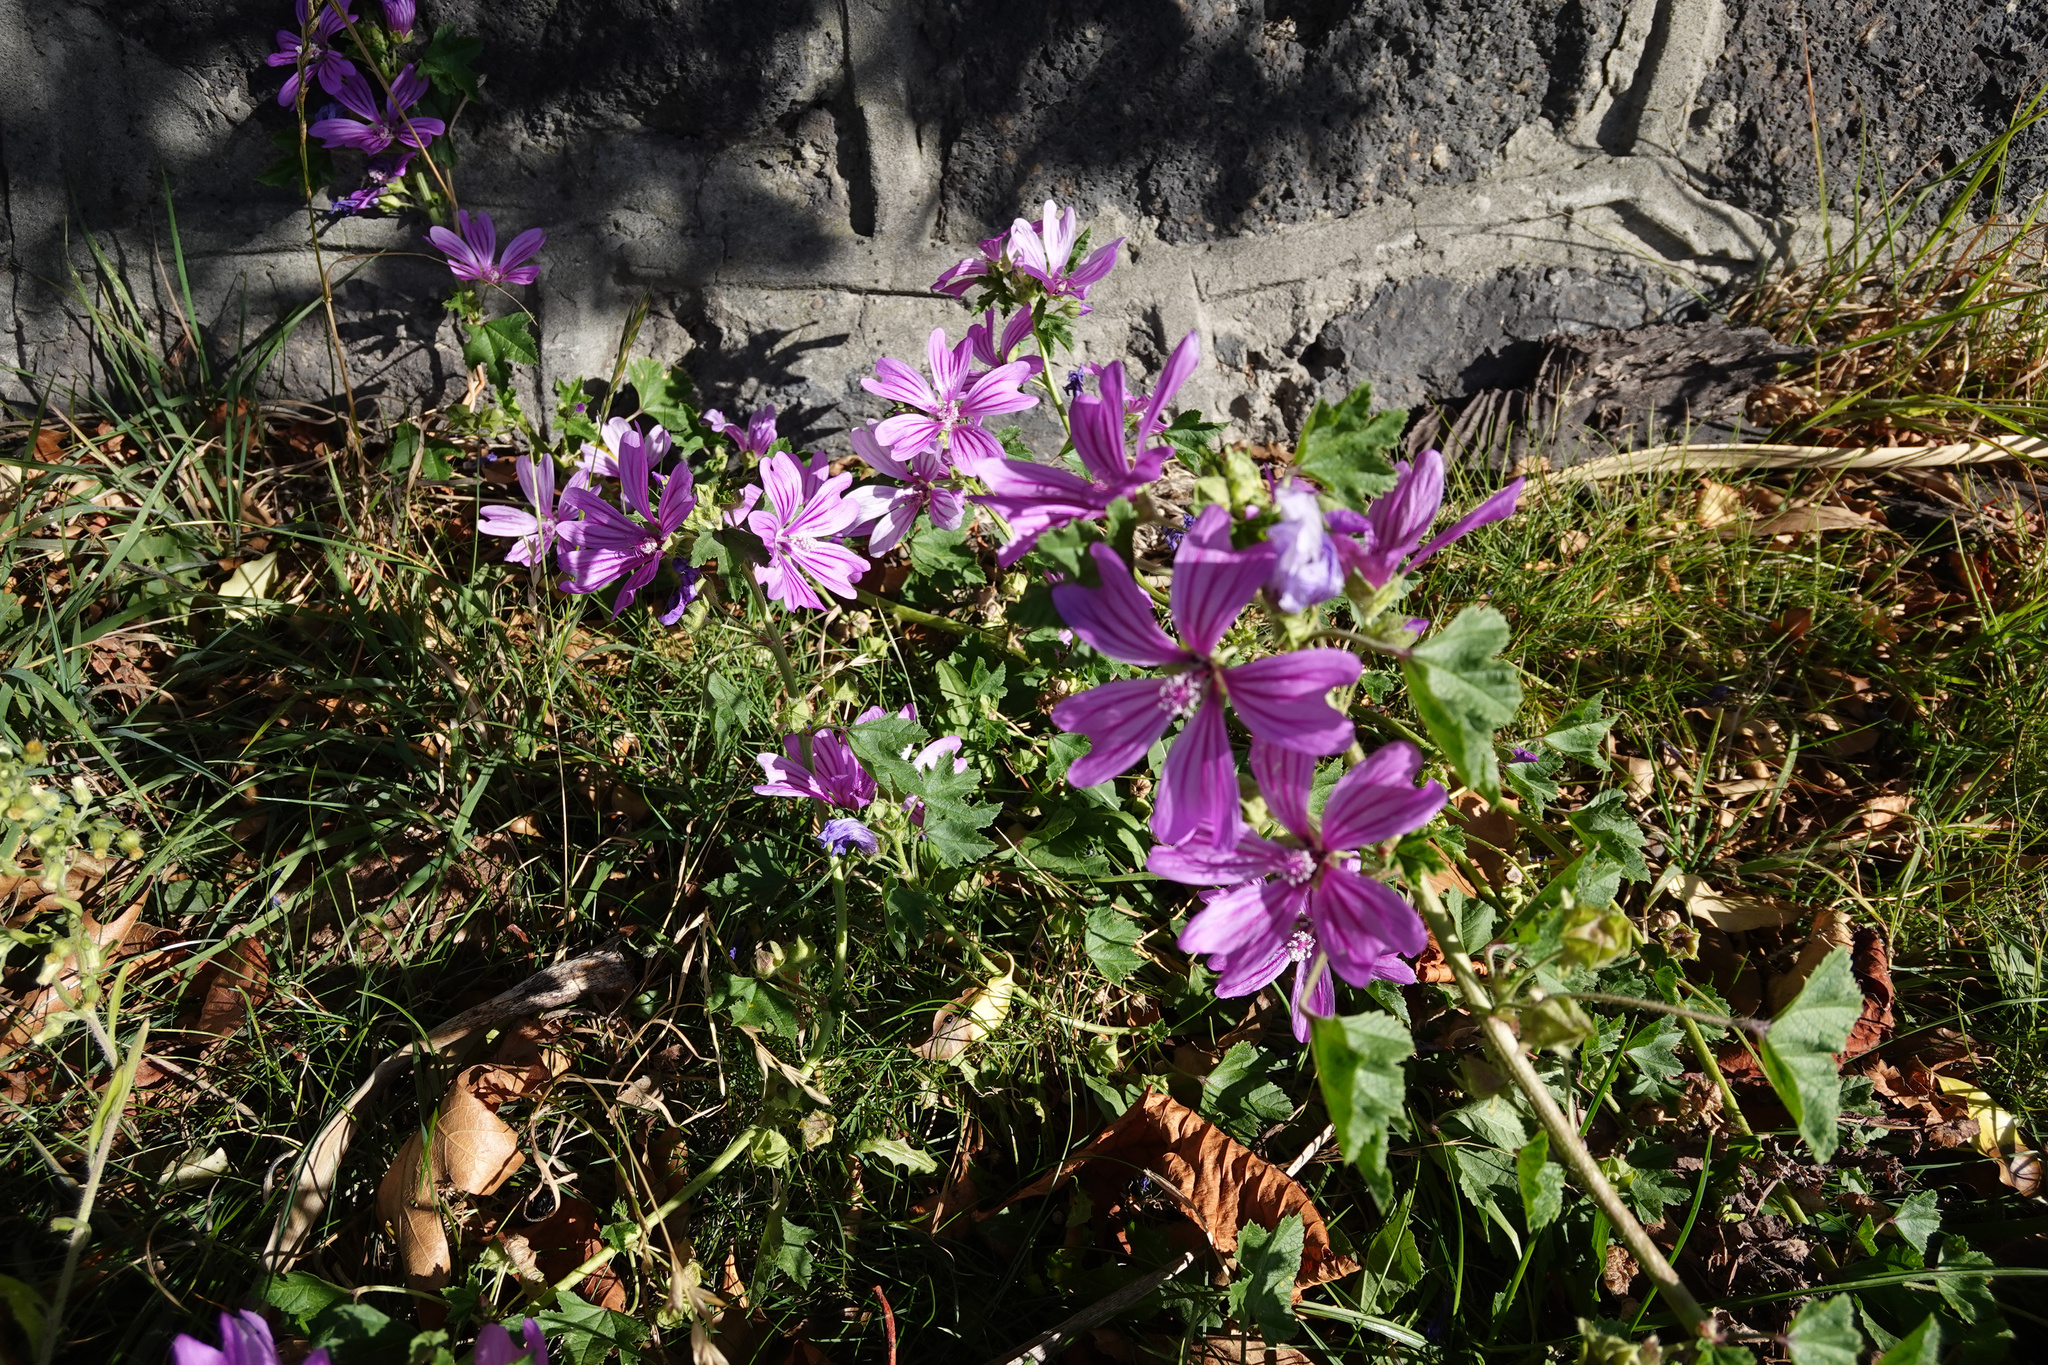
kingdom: Plantae
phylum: Tracheophyta
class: Magnoliopsida
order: Malvales
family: Malvaceae
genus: Malva
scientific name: Malva sylvestris
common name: Common mallow
